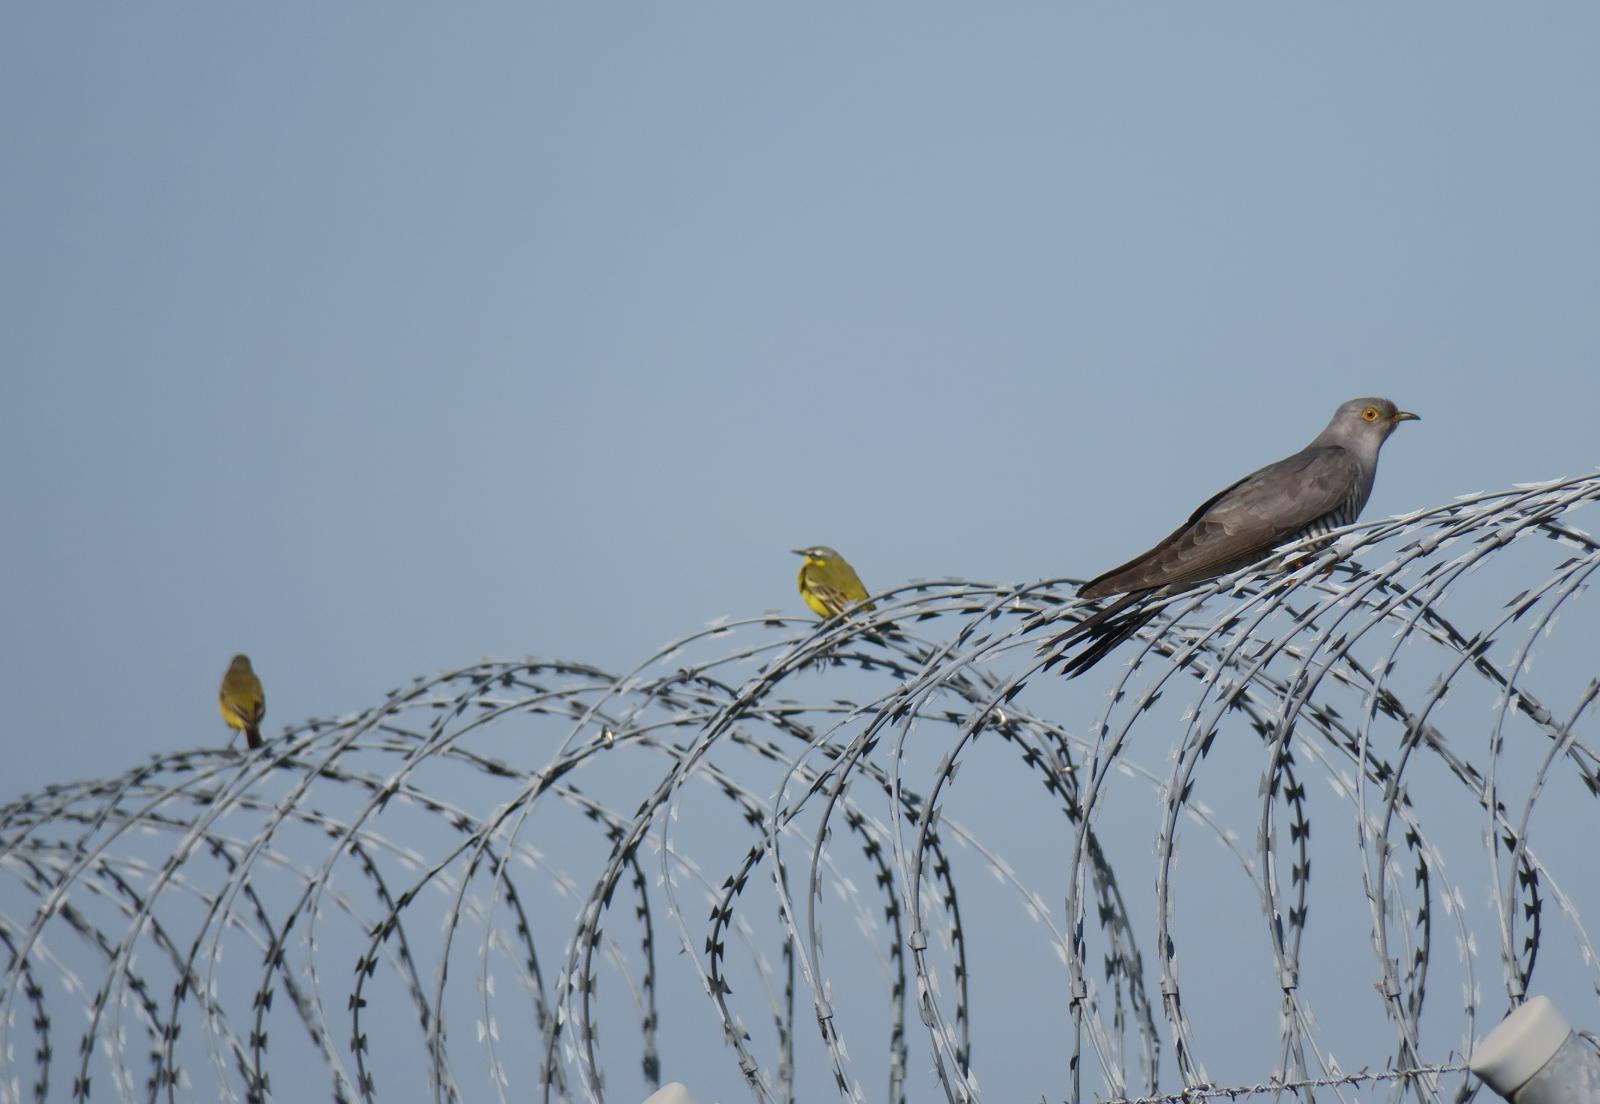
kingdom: Animalia
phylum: Chordata
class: Aves
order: Cuculiformes
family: Cuculidae
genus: Cuculus
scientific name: Cuculus canorus
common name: Common cuckoo
